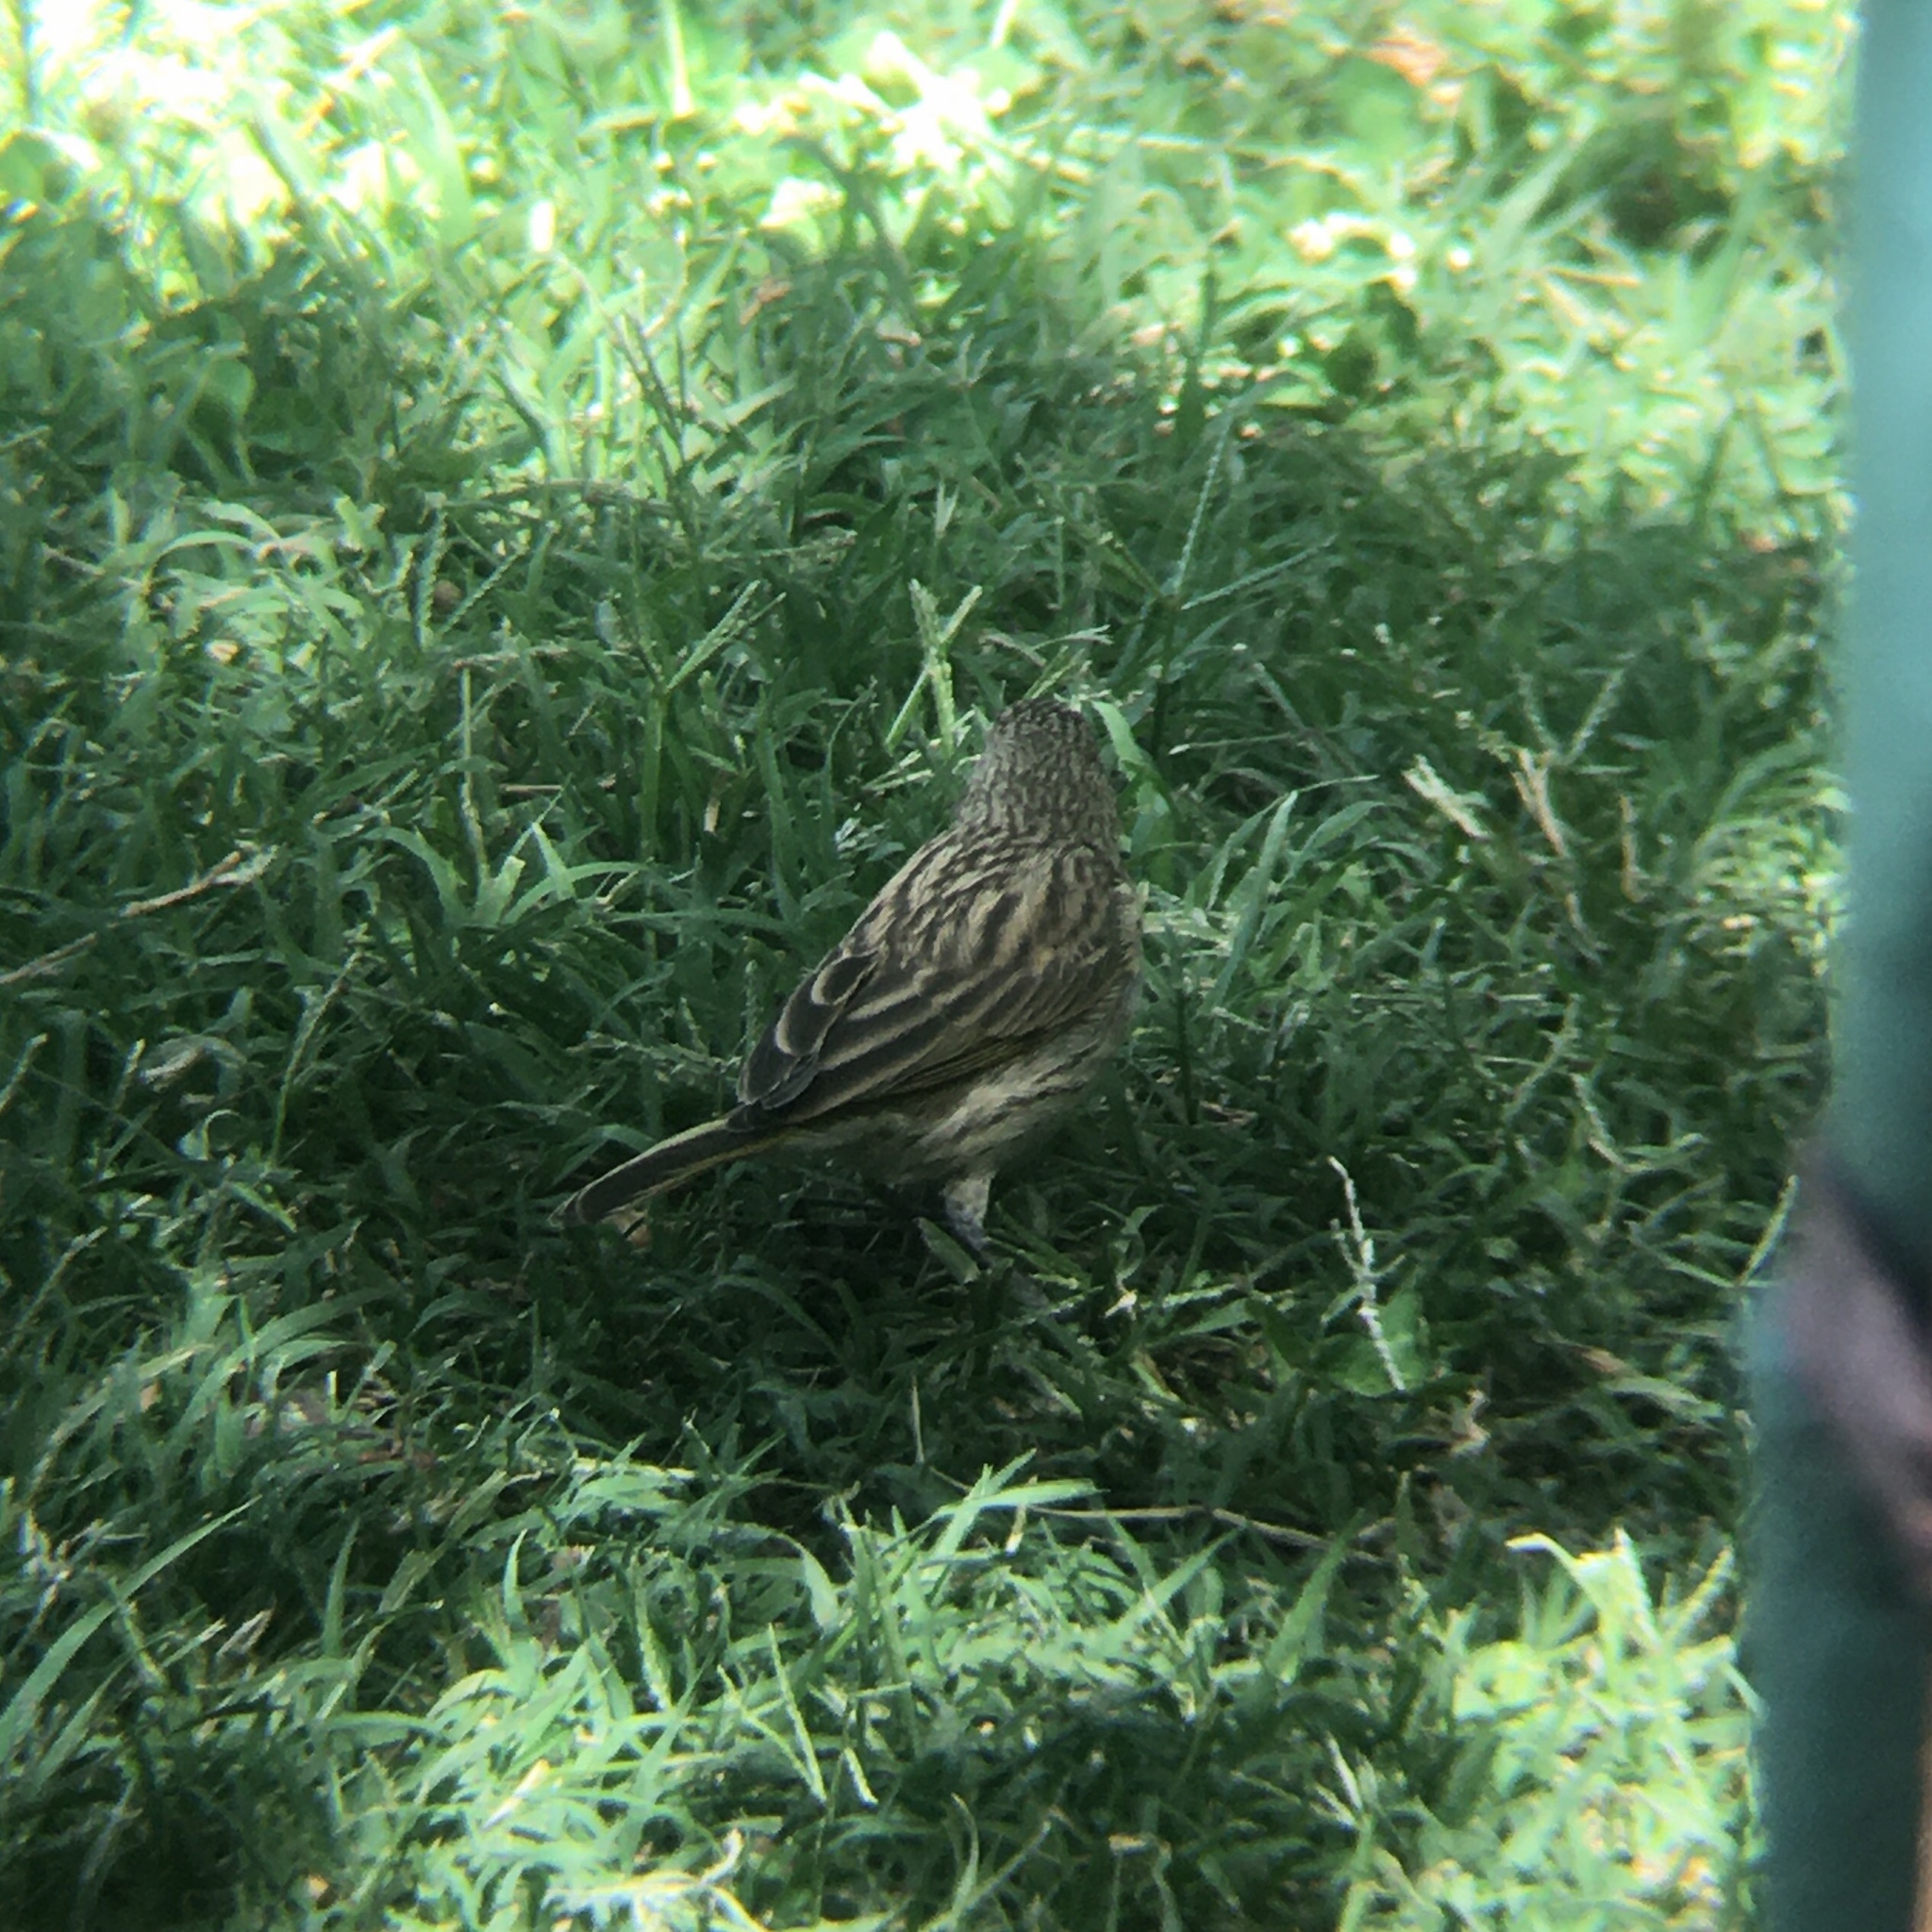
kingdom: Animalia
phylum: Chordata
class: Aves
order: Passeriformes
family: Thraupidae
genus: Sicalis
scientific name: Sicalis flaveola
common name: Saffron finch
